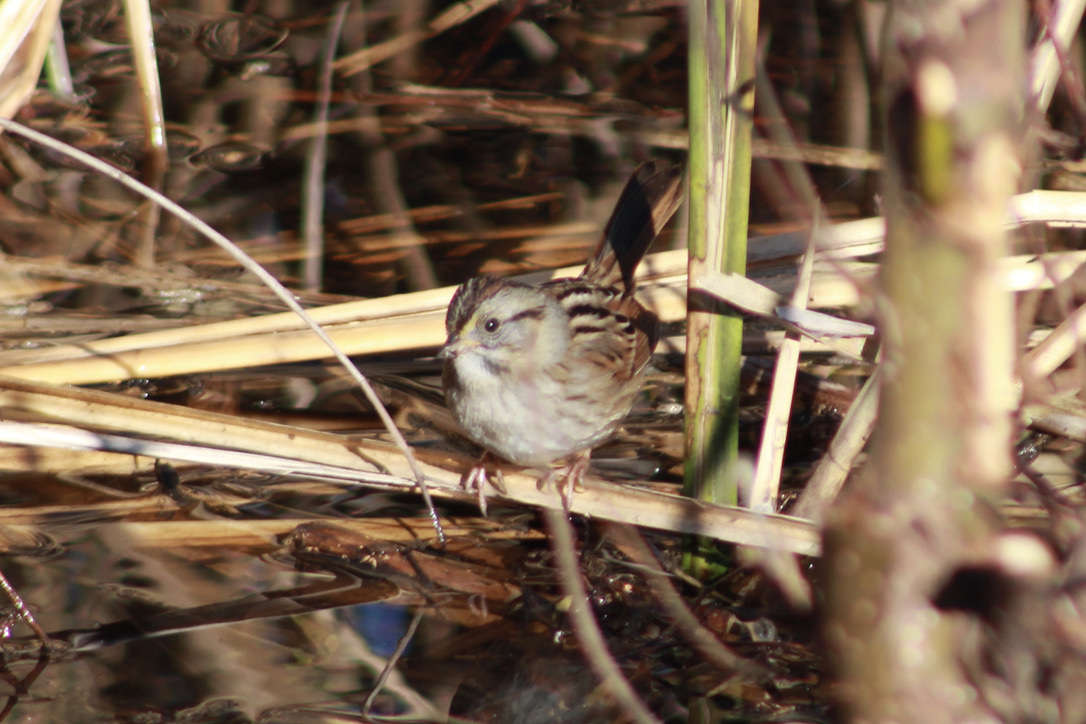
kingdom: Animalia
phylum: Chordata
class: Aves
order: Passeriformes
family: Passerellidae
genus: Melospiza
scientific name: Melospiza georgiana
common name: Swamp sparrow
